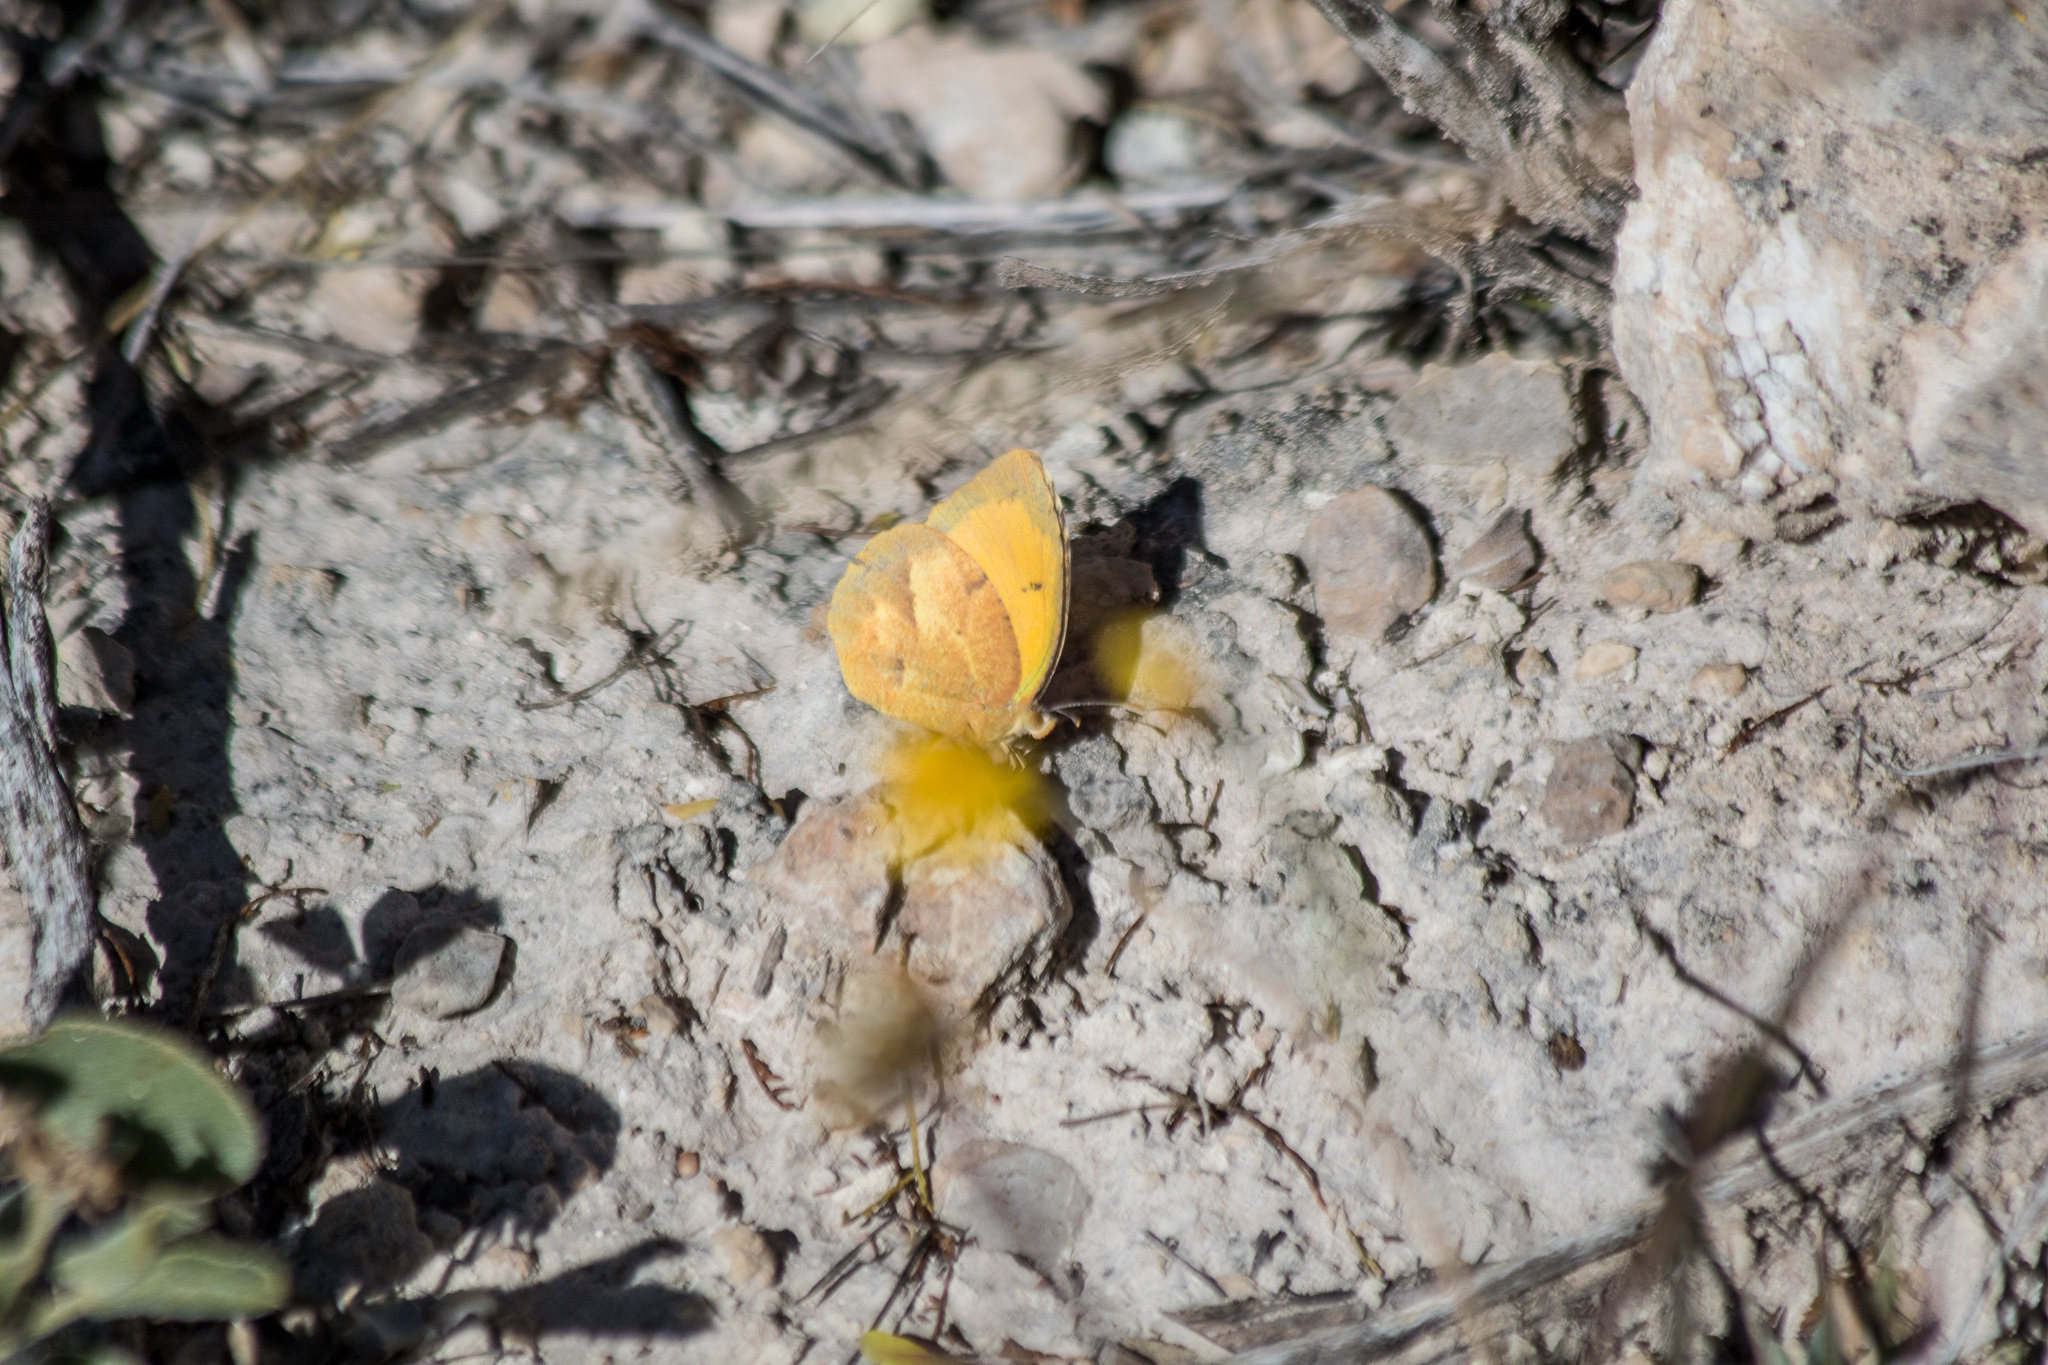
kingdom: Animalia
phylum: Arthropoda
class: Insecta
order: Lepidoptera
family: Pieridae
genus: Abaeis
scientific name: Abaeis nicippe
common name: Sleepy orange
